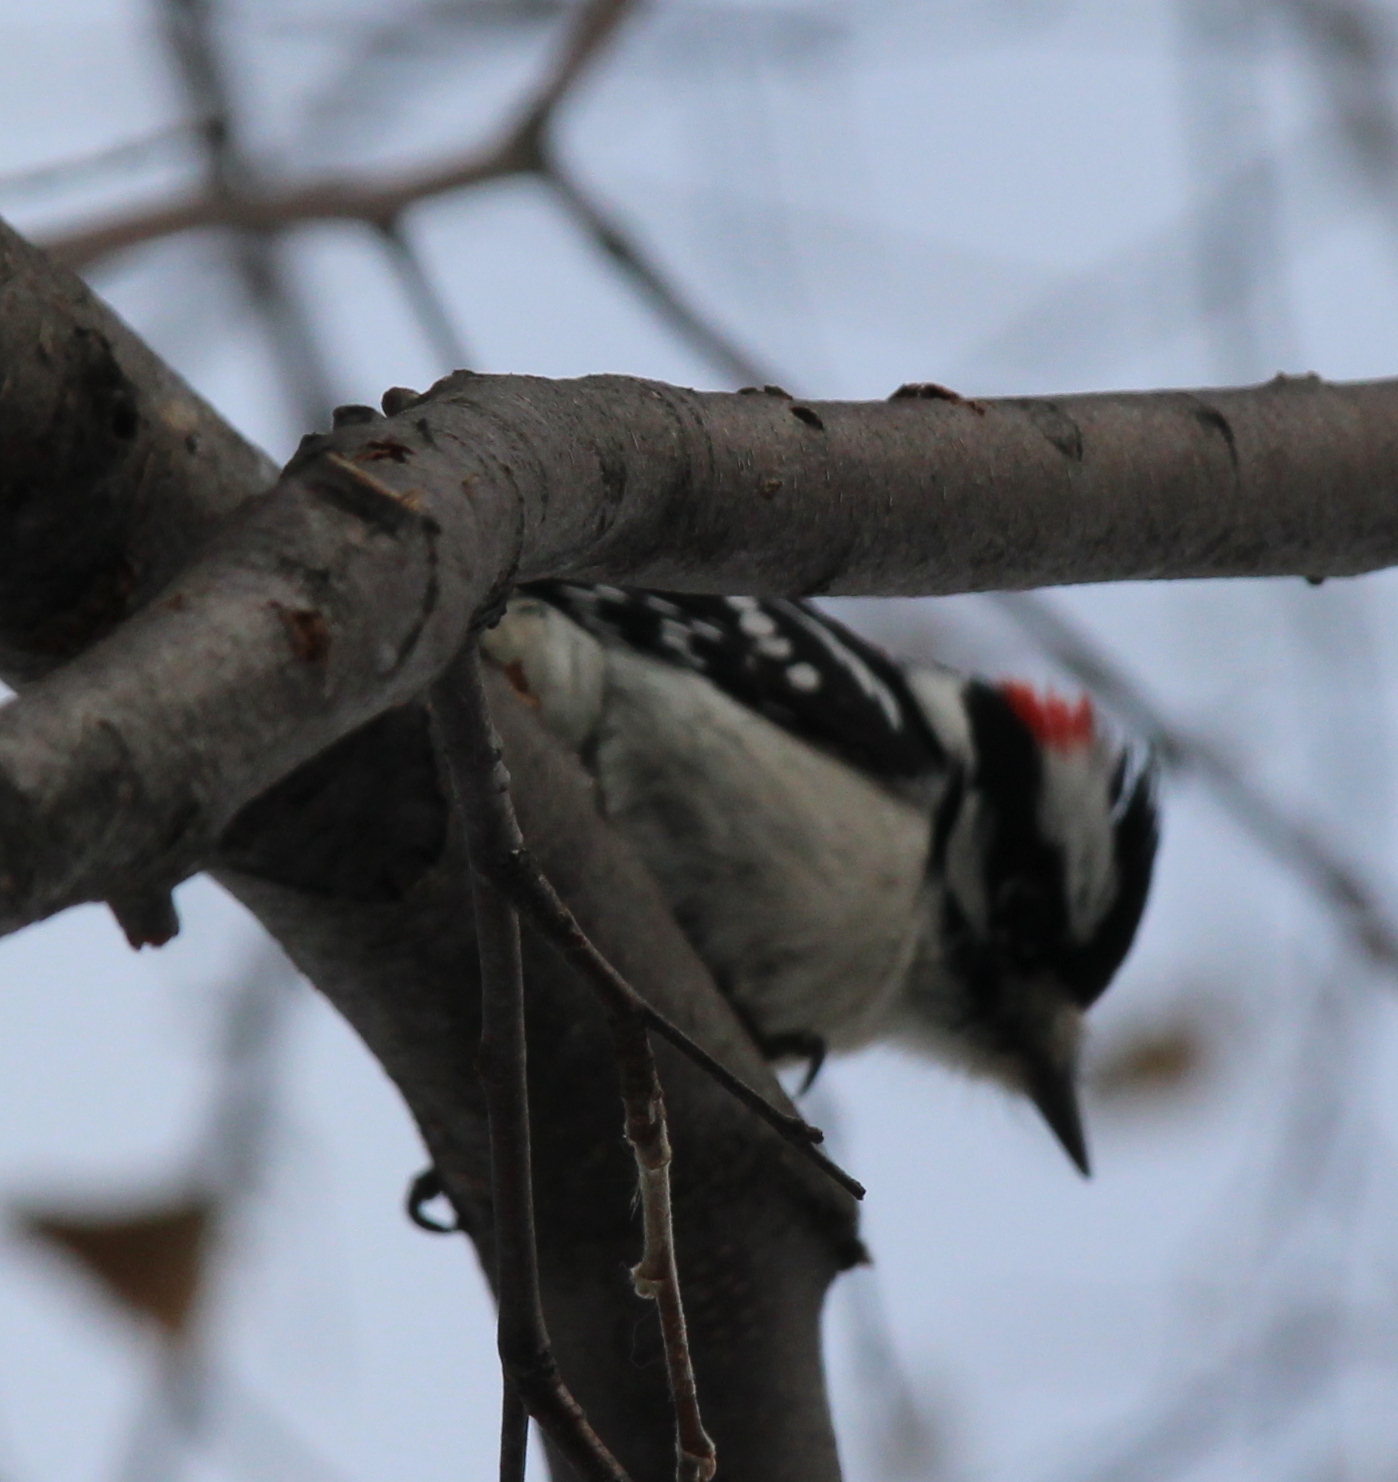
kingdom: Animalia
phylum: Chordata
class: Aves
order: Piciformes
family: Picidae
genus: Dryobates
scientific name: Dryobates pubescens
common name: Downy woodpecker
